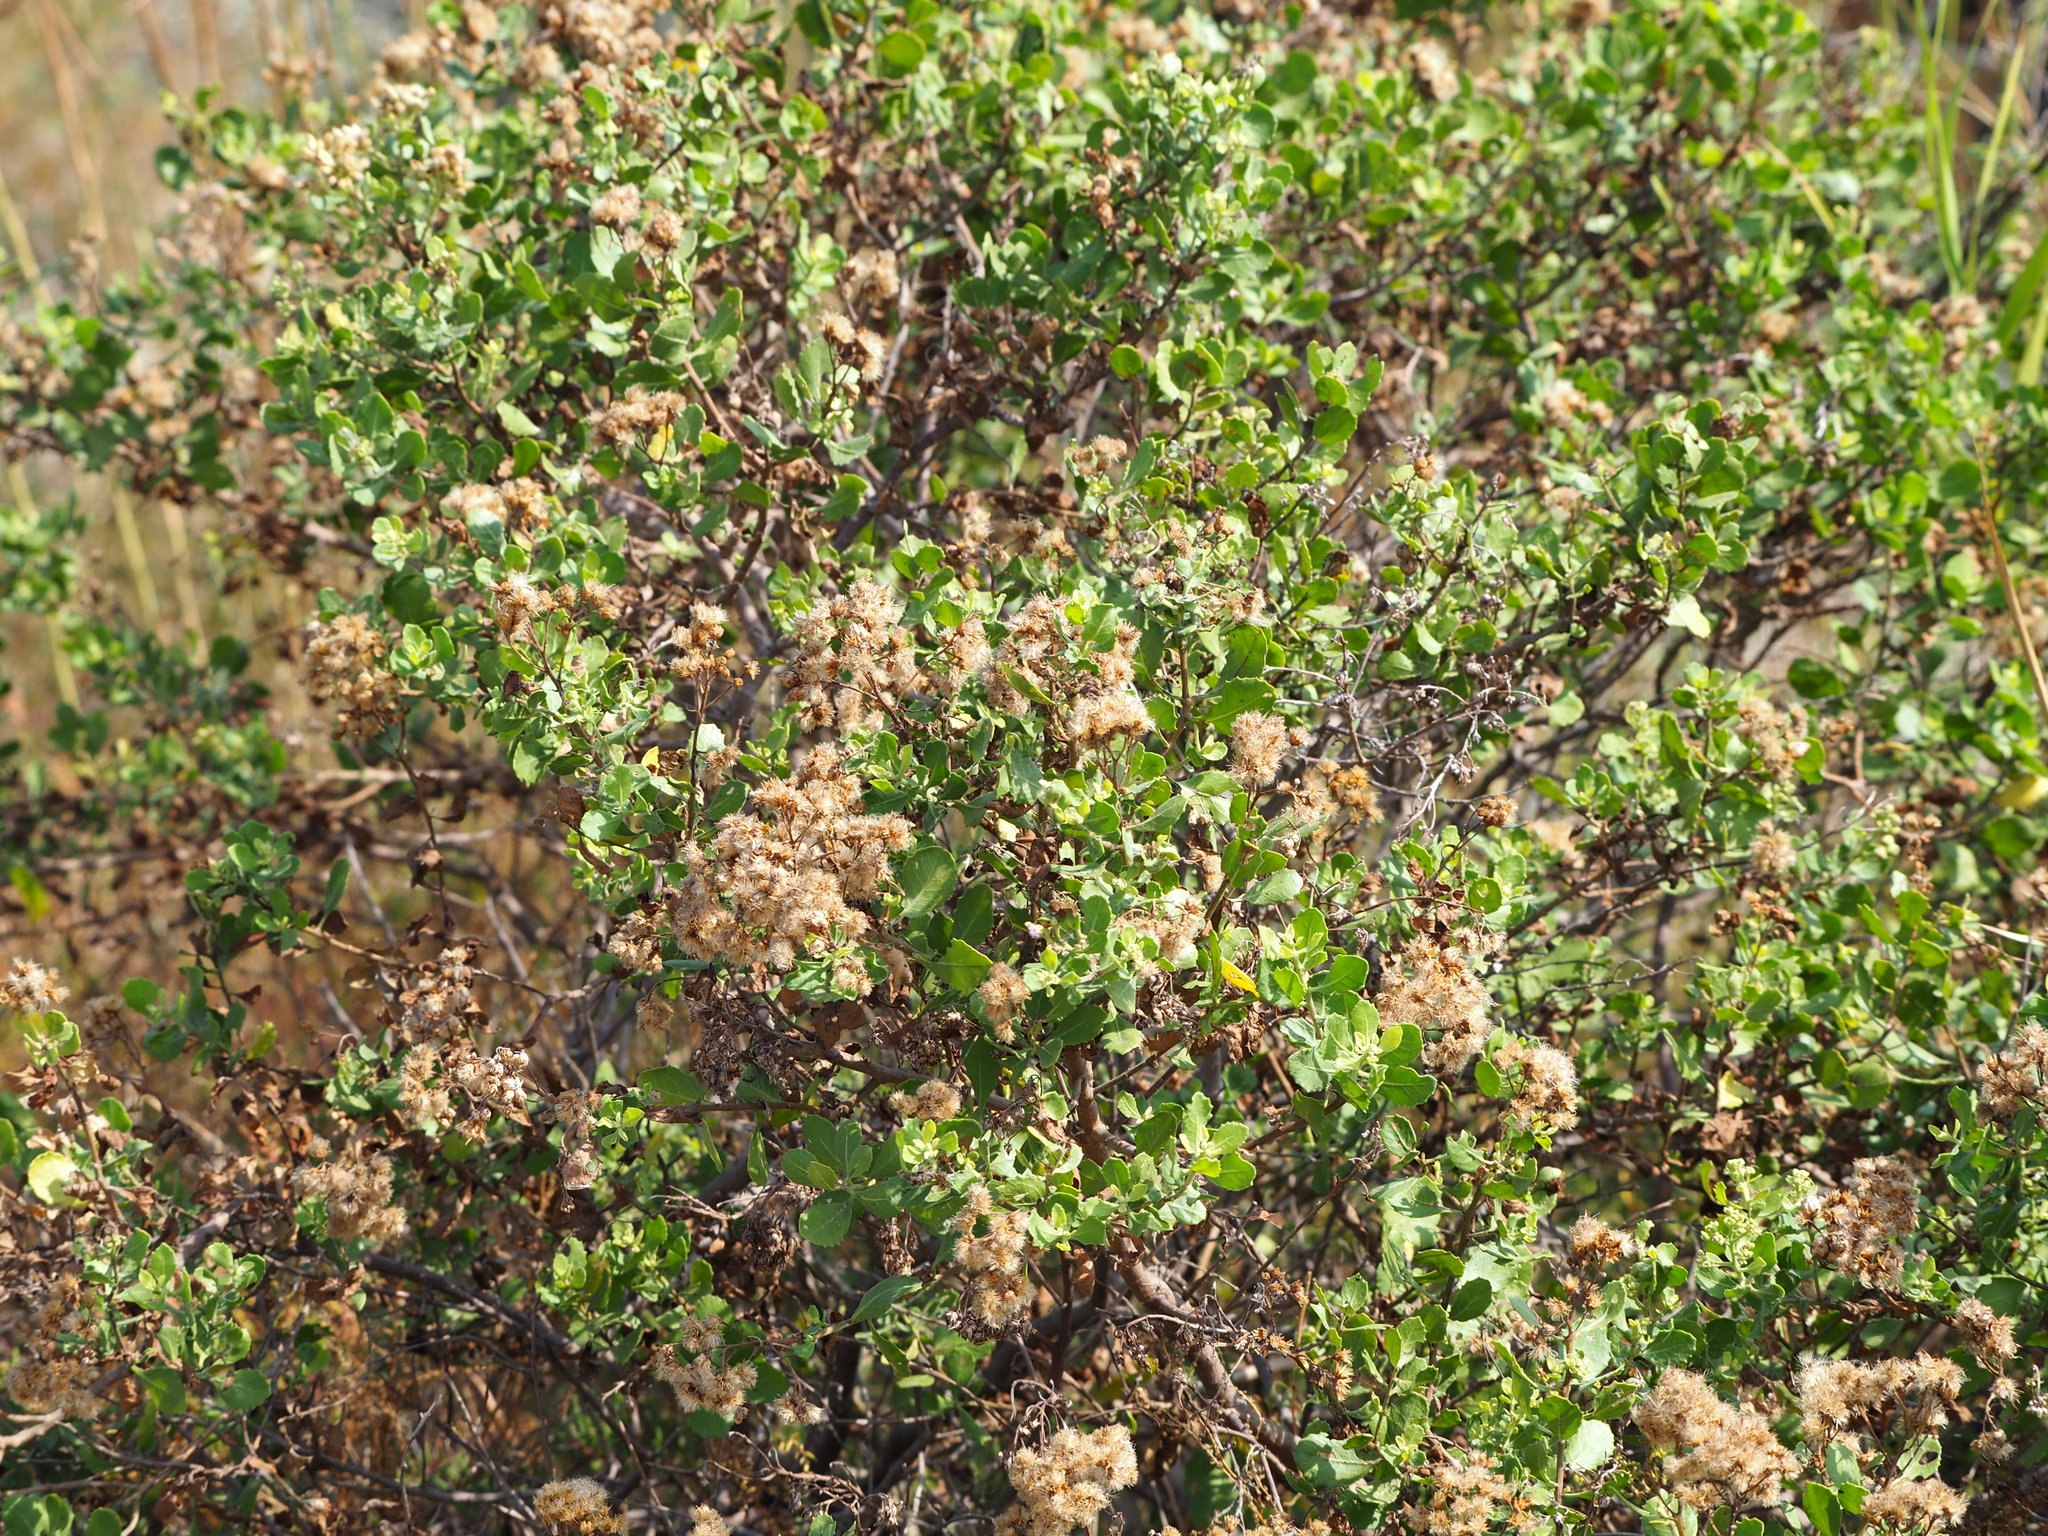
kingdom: Plantae
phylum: Tracheophyta
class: Magnoliopsida
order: Asterales
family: Asteraceae
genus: Pluchea
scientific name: Pluchea indica
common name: Indian fleabane
